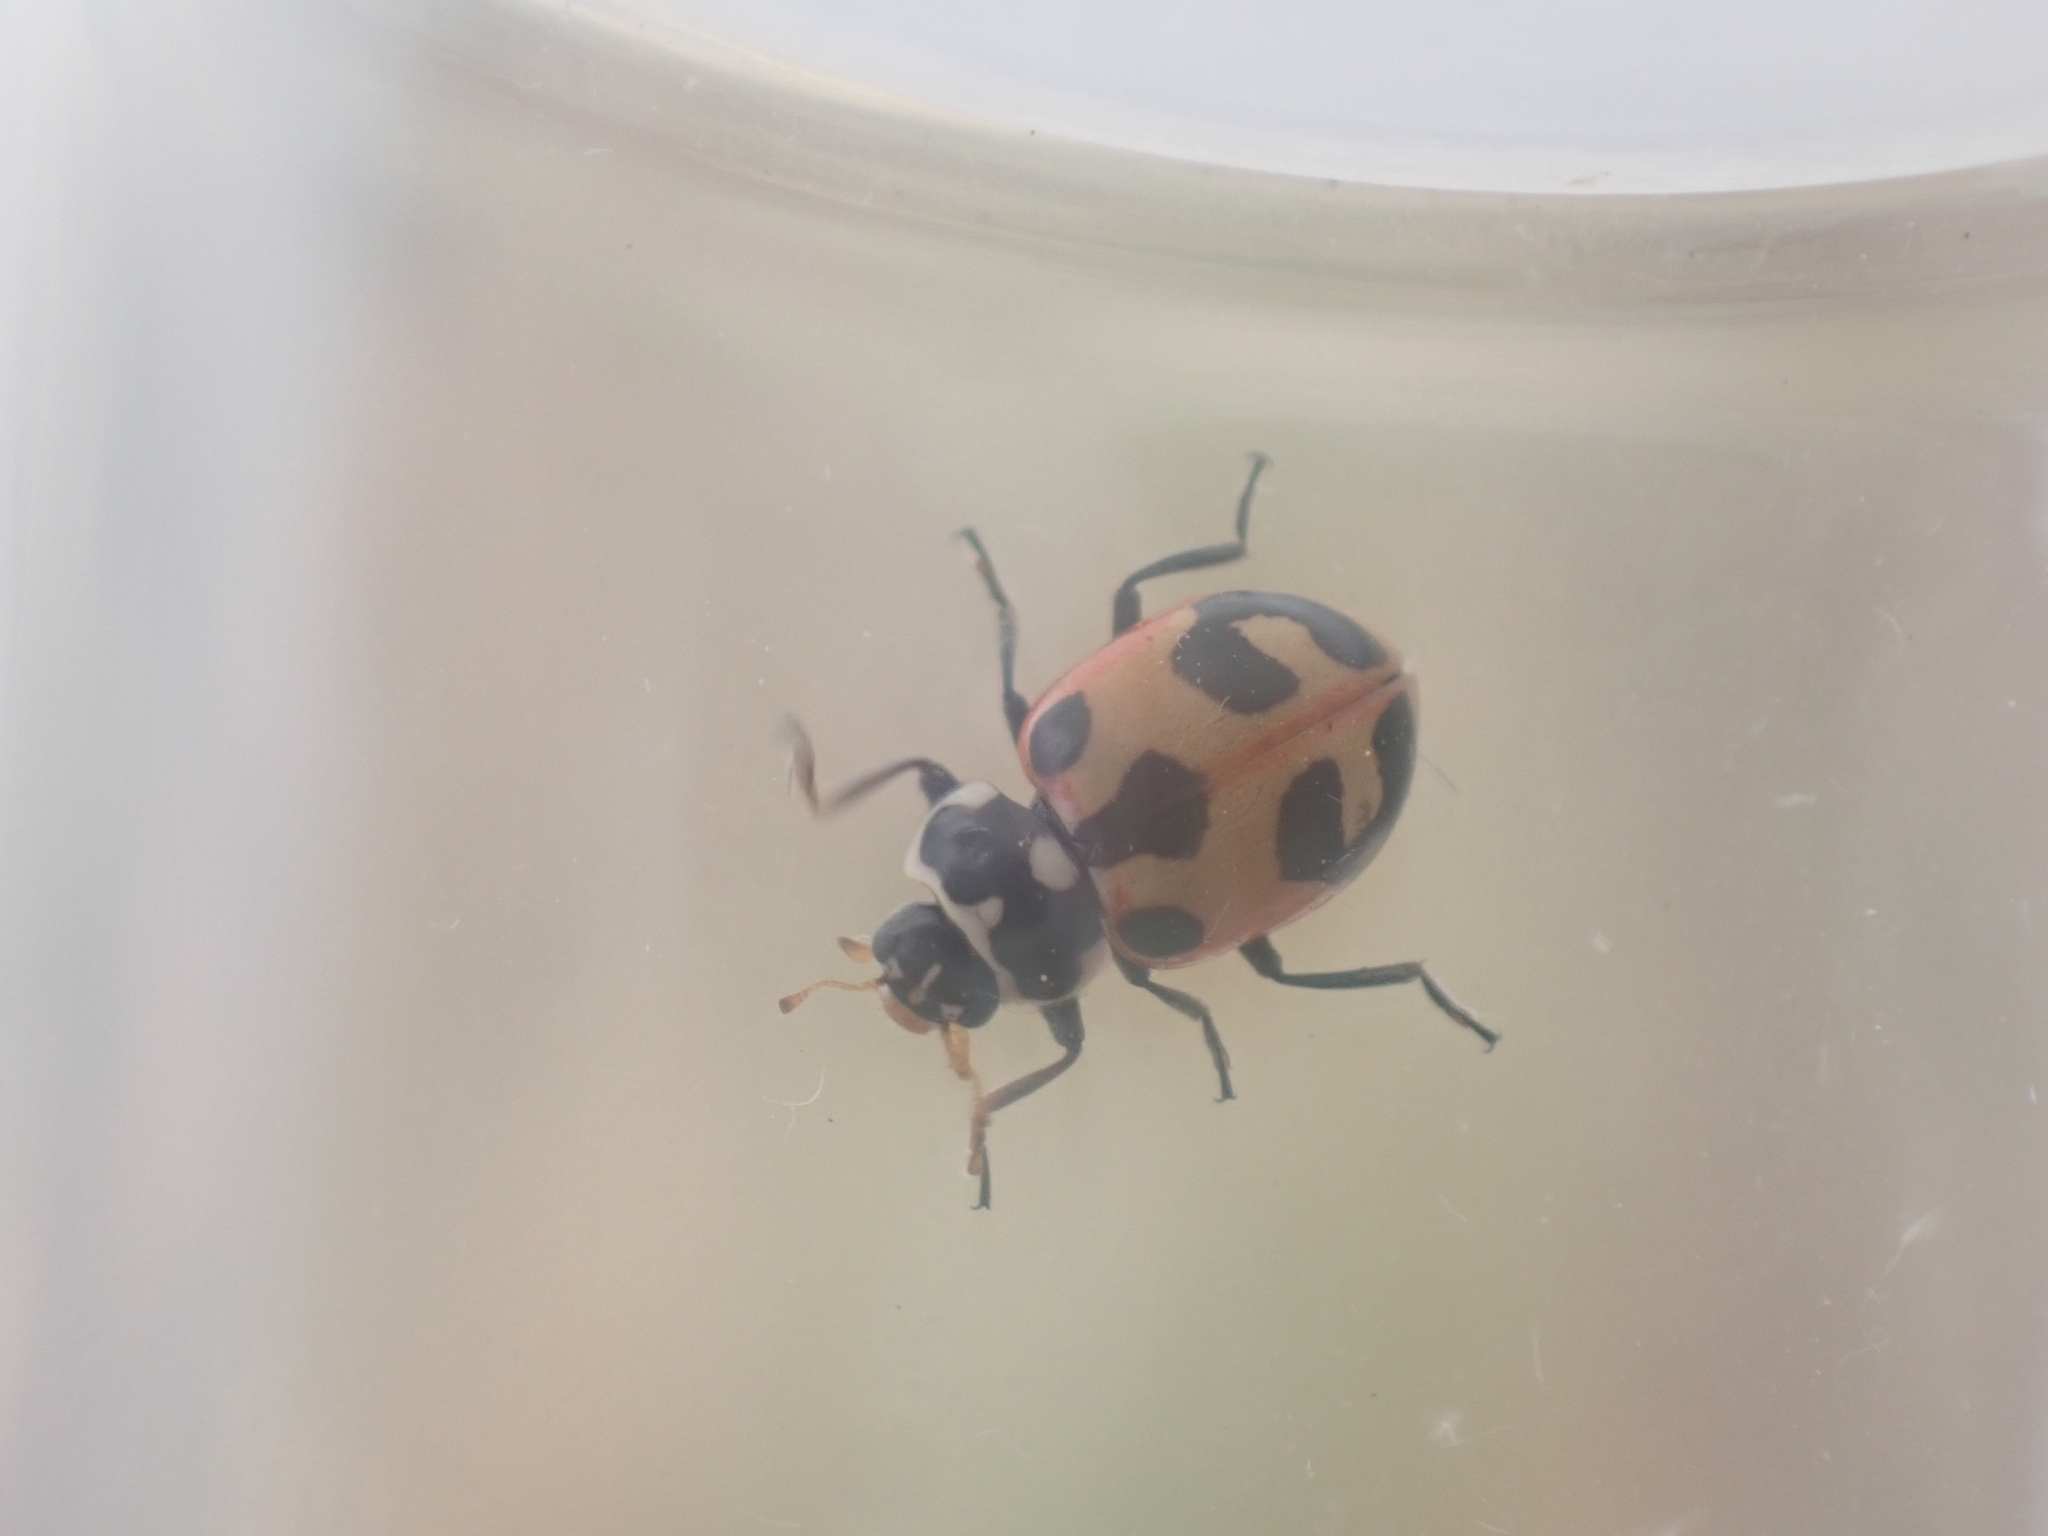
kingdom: Animalia
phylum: Arthropoda
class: Insecta
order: Coleoptera
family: Coccinellidae
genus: Hippodamia
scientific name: Hippodamia parenthesis
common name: Parenthesis lady beetle
